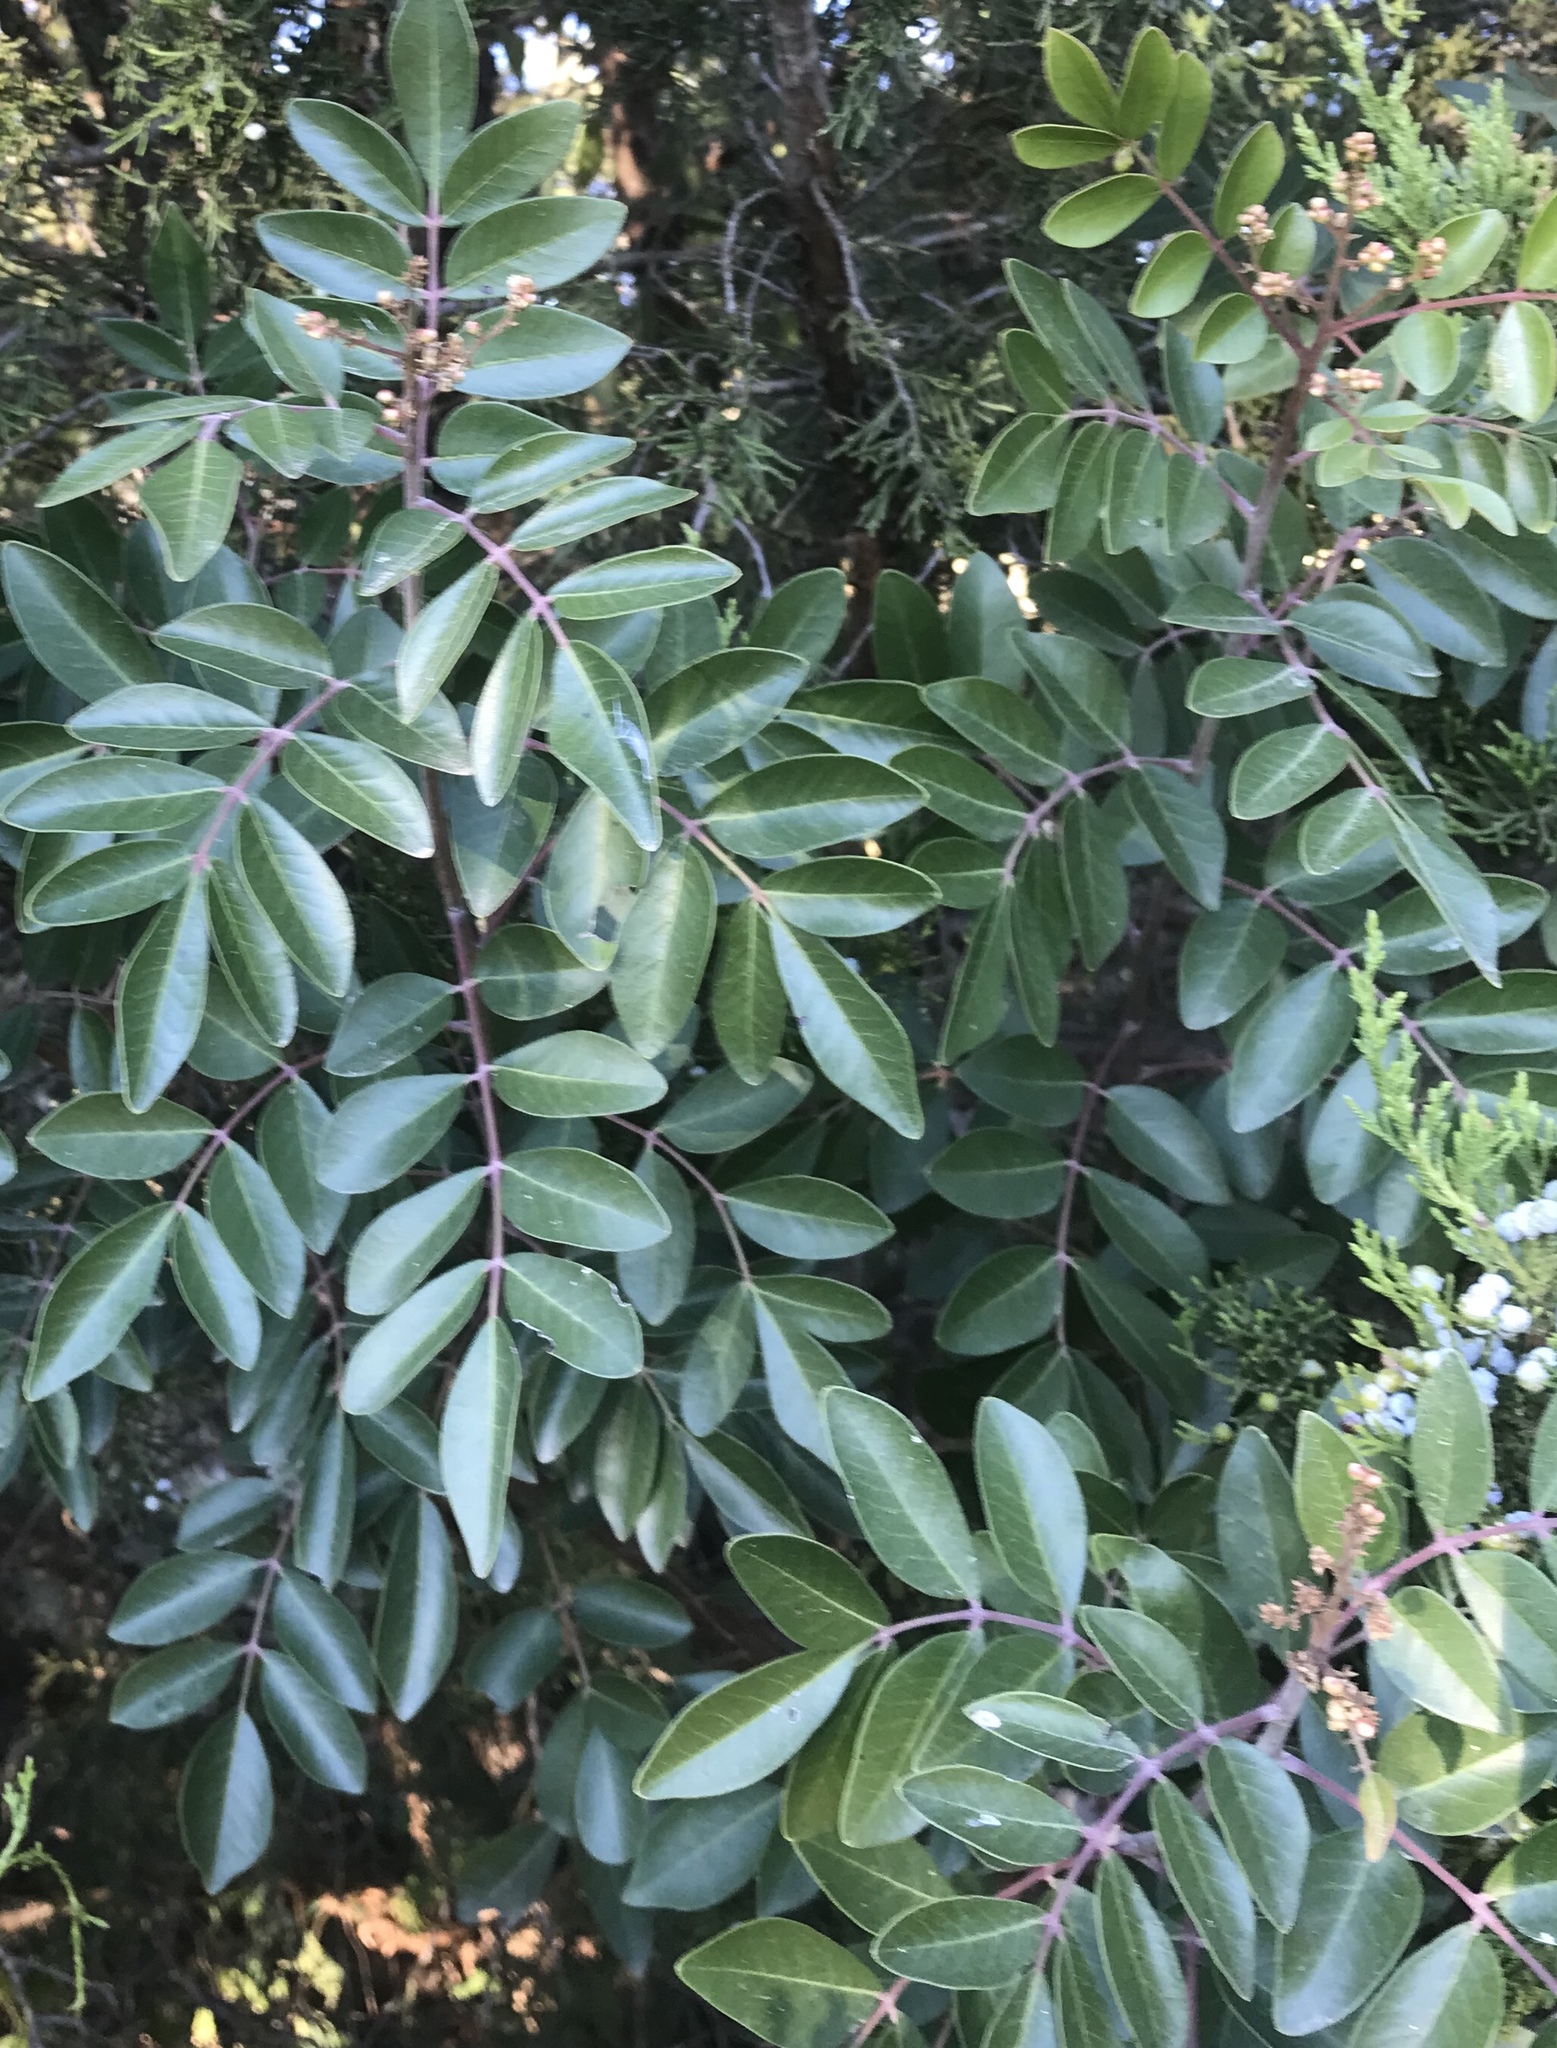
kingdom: Plantae
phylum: Tracheophyta
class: Magnoliopsida
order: Sapindales
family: Anacardiaceae
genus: Rhus
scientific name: Rhus virens
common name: Evergreen sumac
